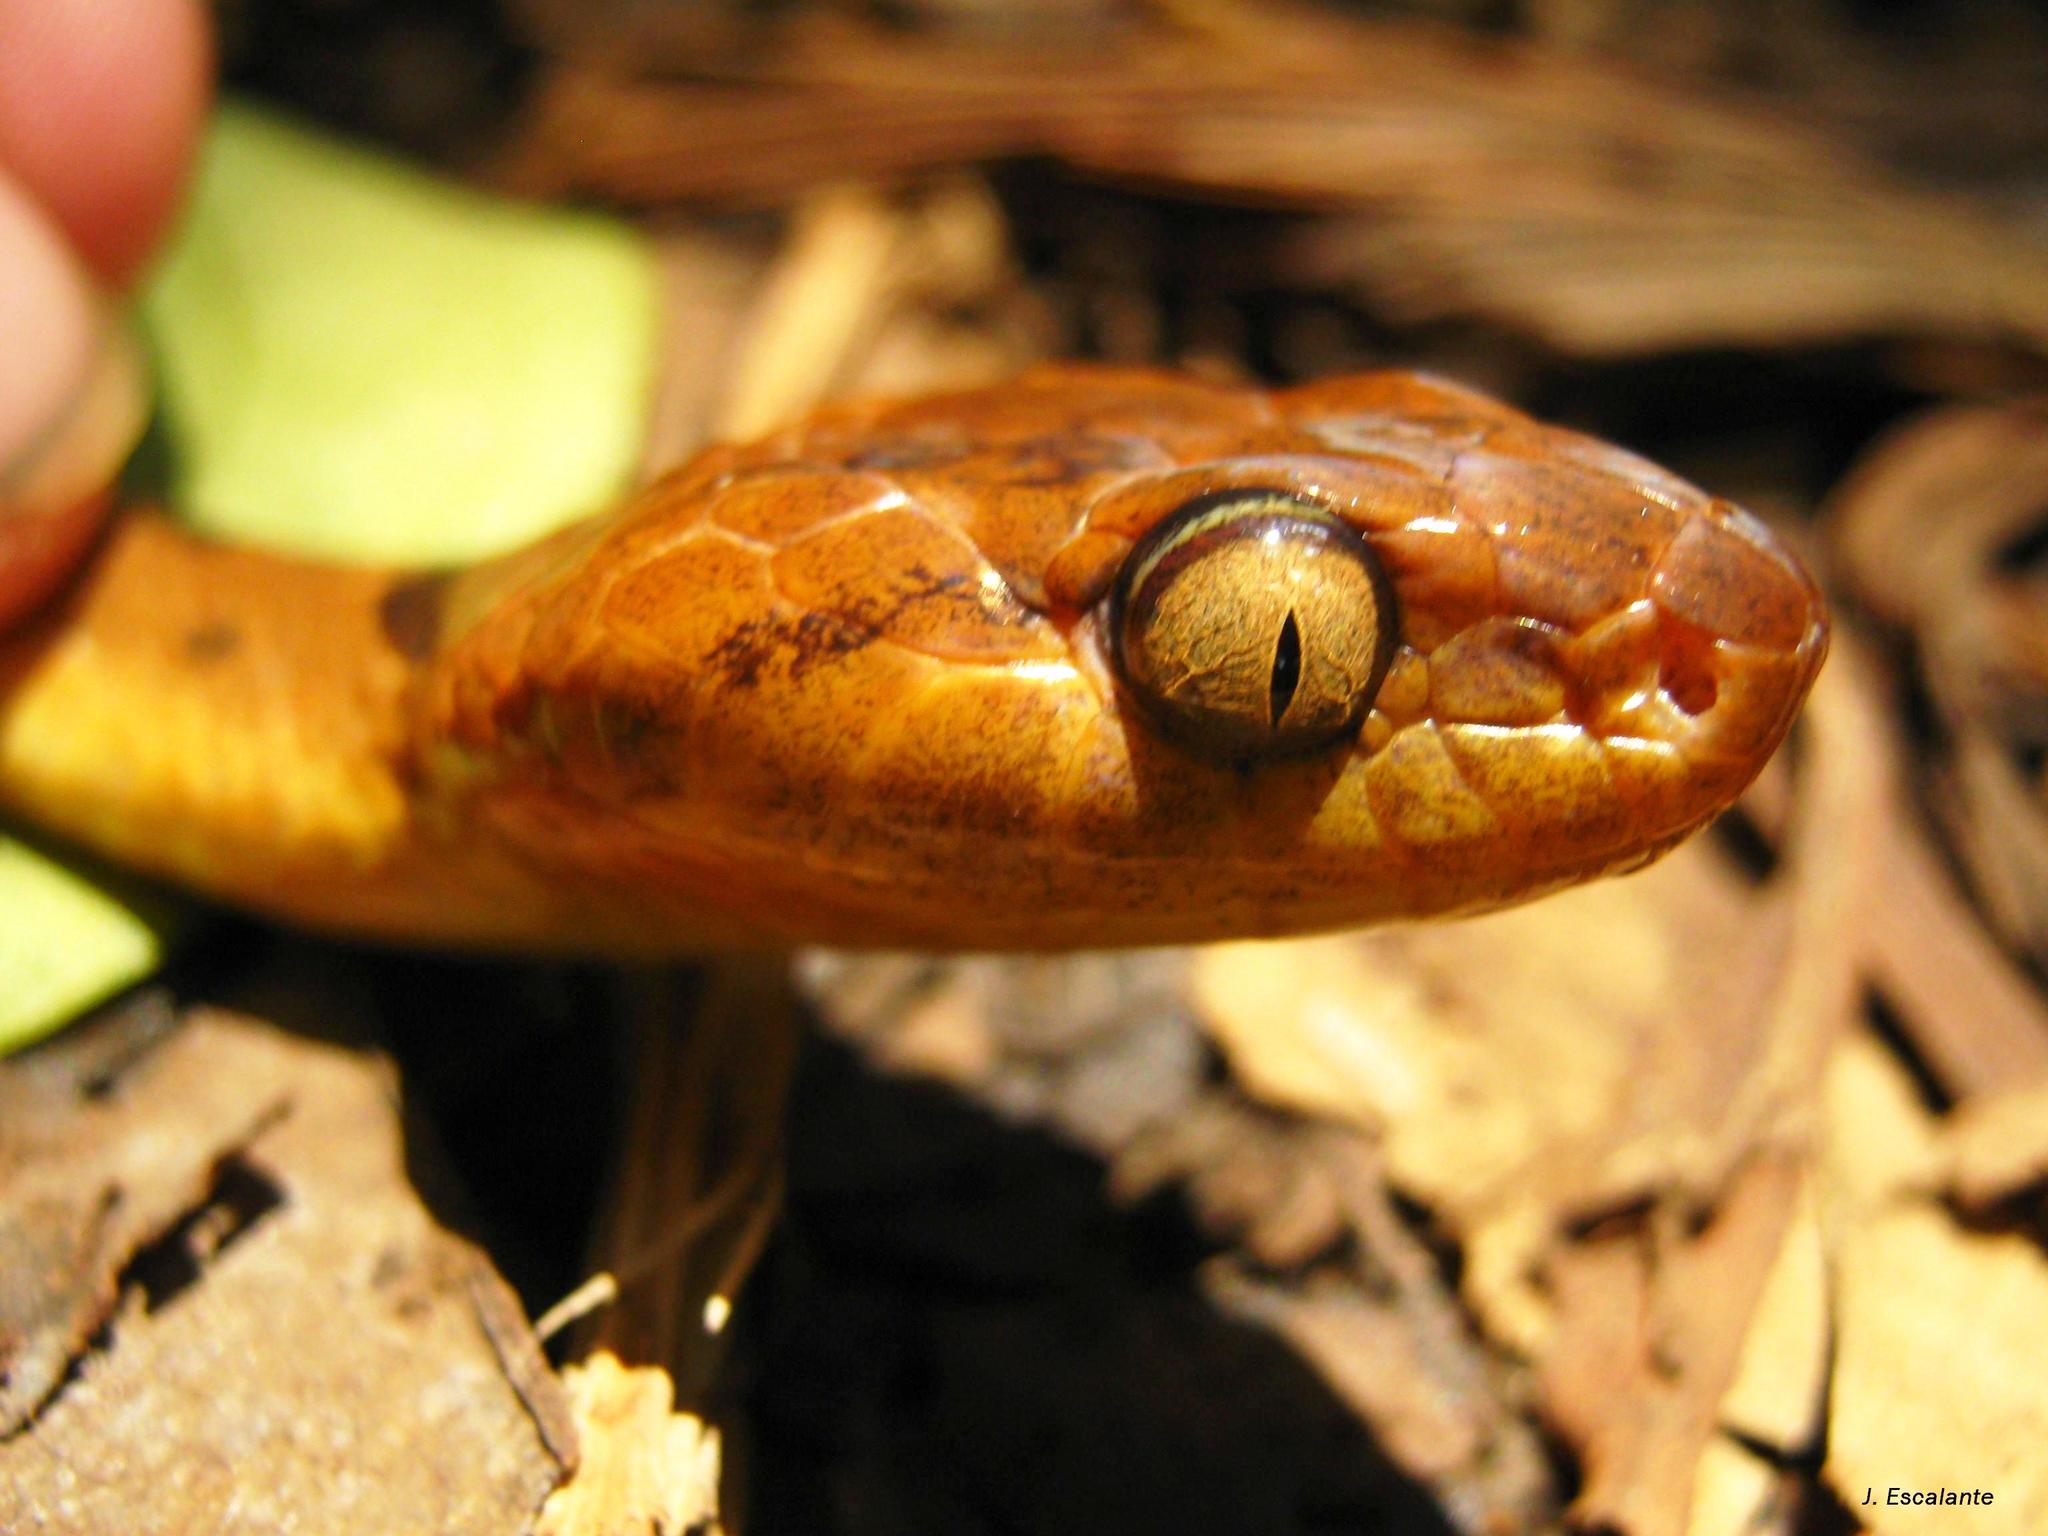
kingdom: Animalia
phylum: Chordata
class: Squamata
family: Colubridae
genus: Leptodeira
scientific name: Leptodeira septentrionalis
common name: Northern cat-eyed snake
